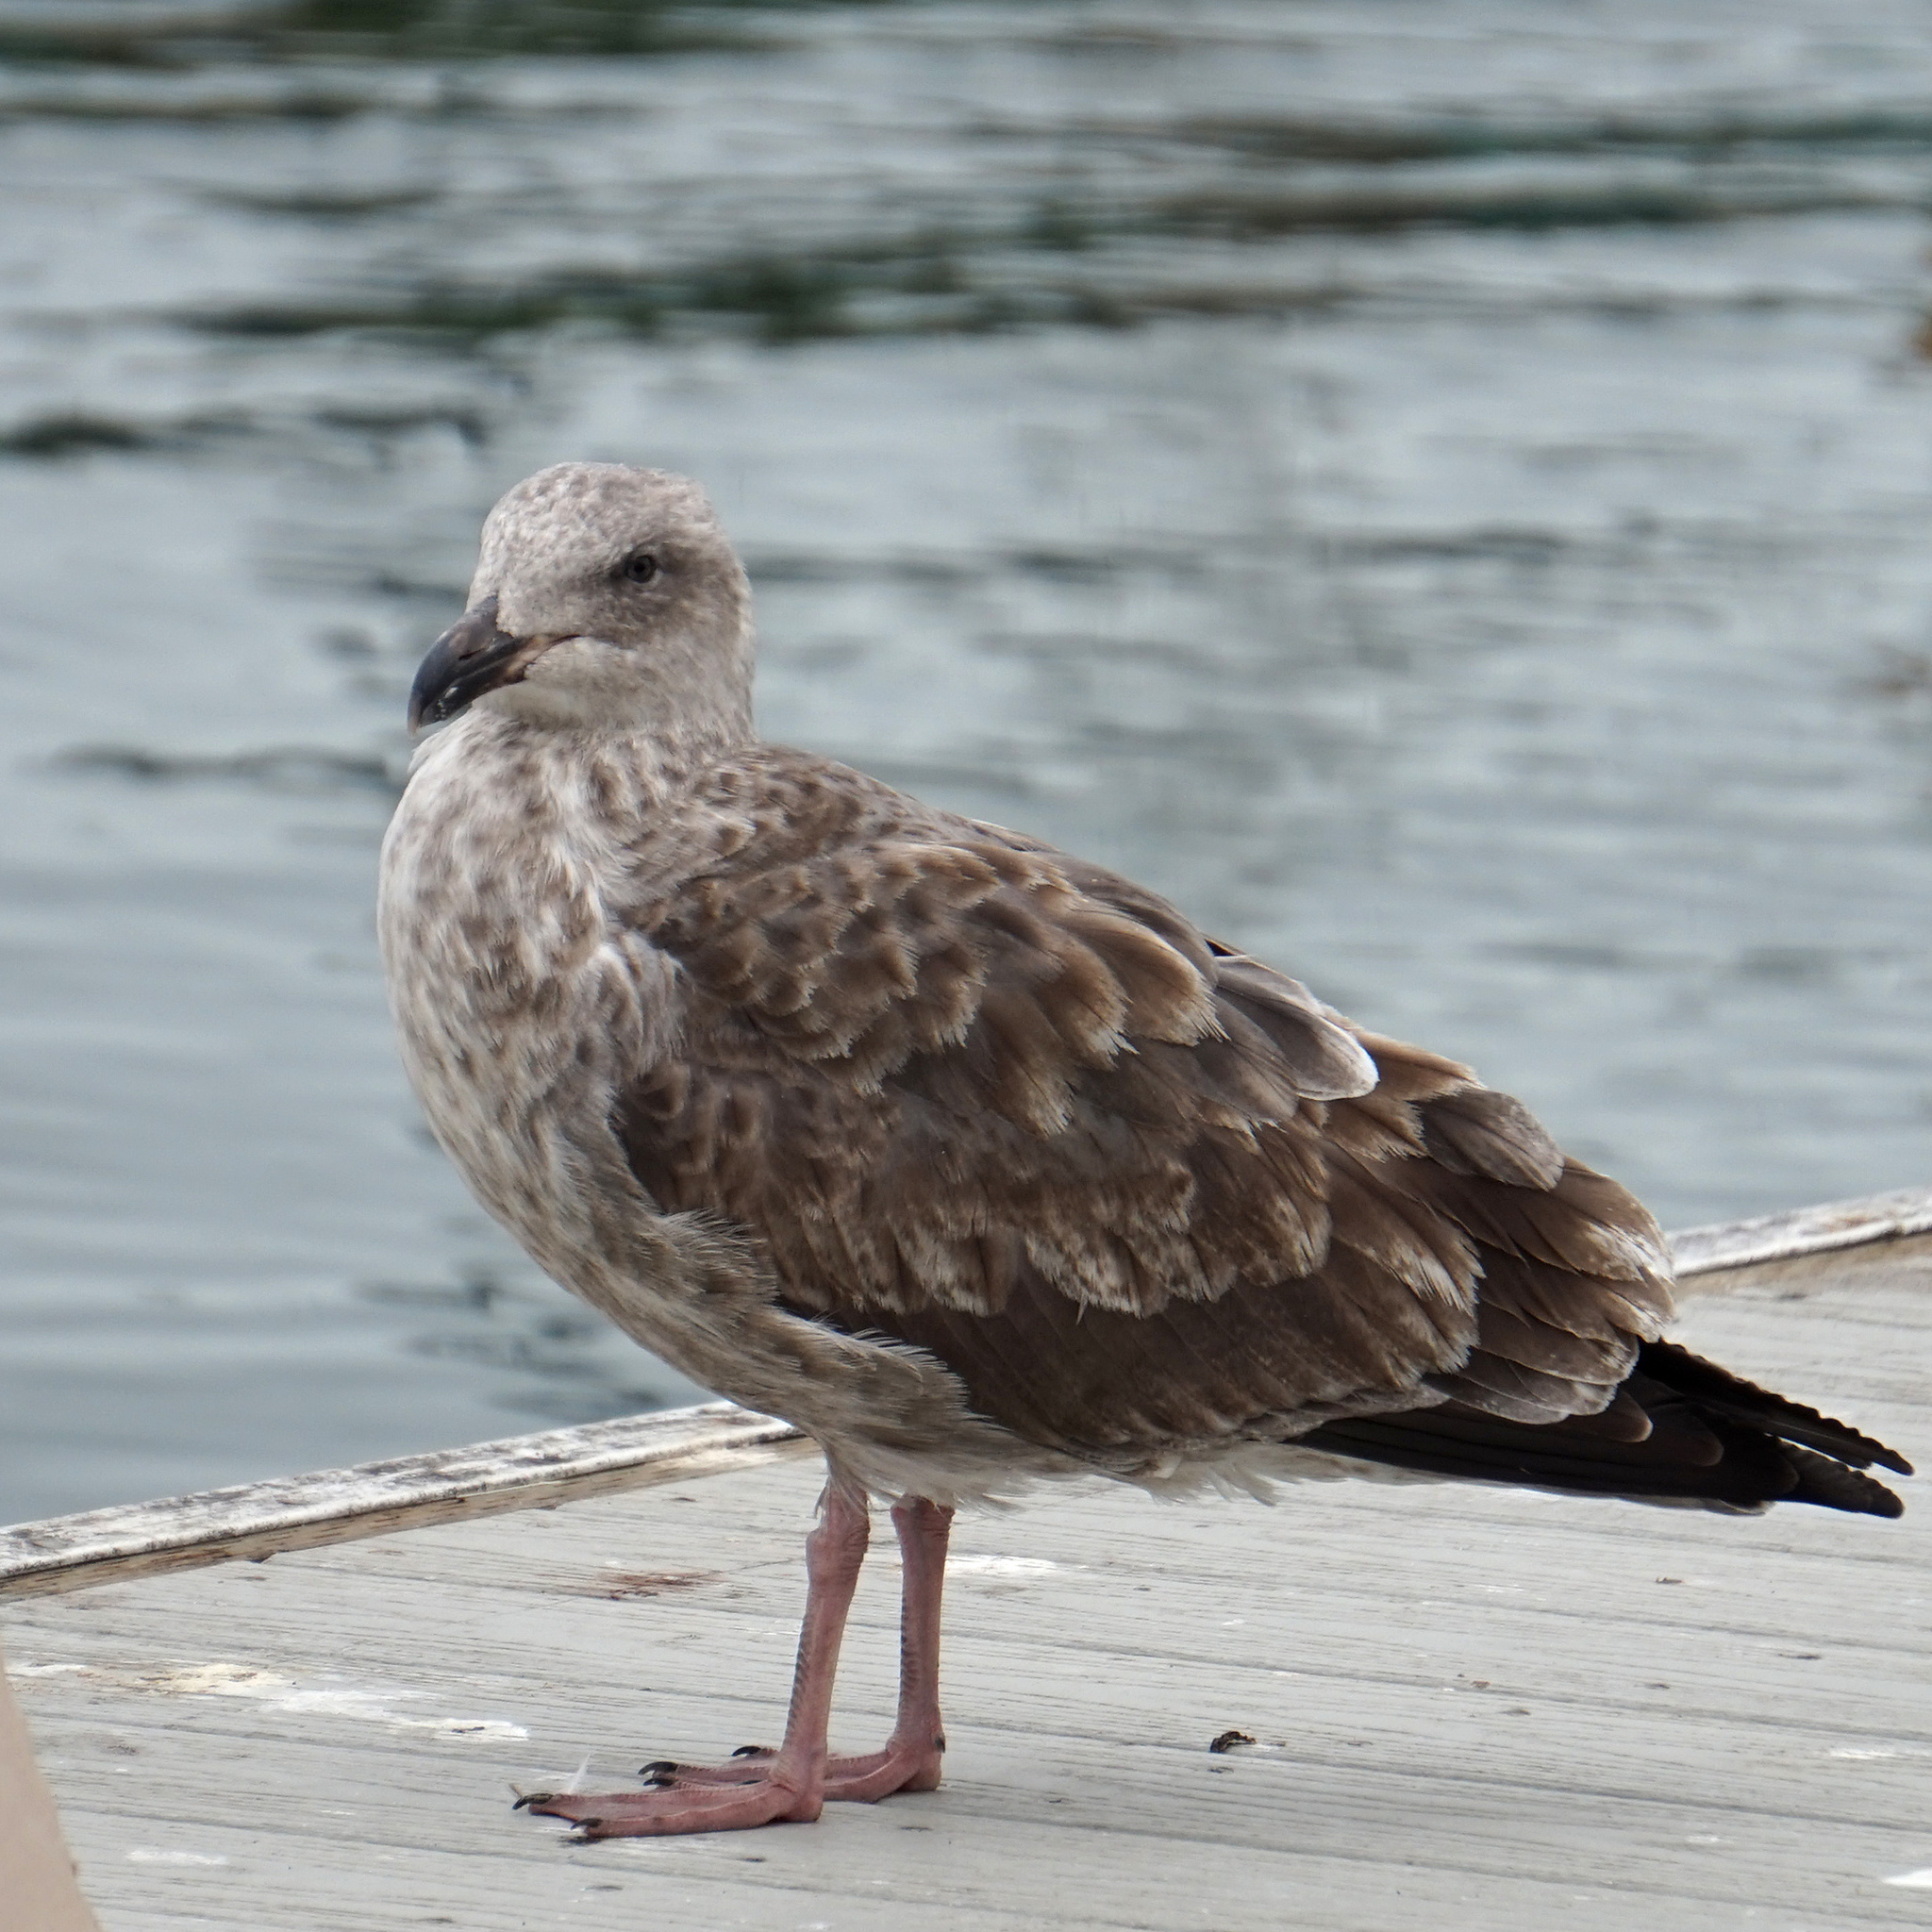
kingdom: Animalia
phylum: Chordata
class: Aves
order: Charadriiformes
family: Laridae
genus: Larus
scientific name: Larus occidentalis
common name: Western gull
